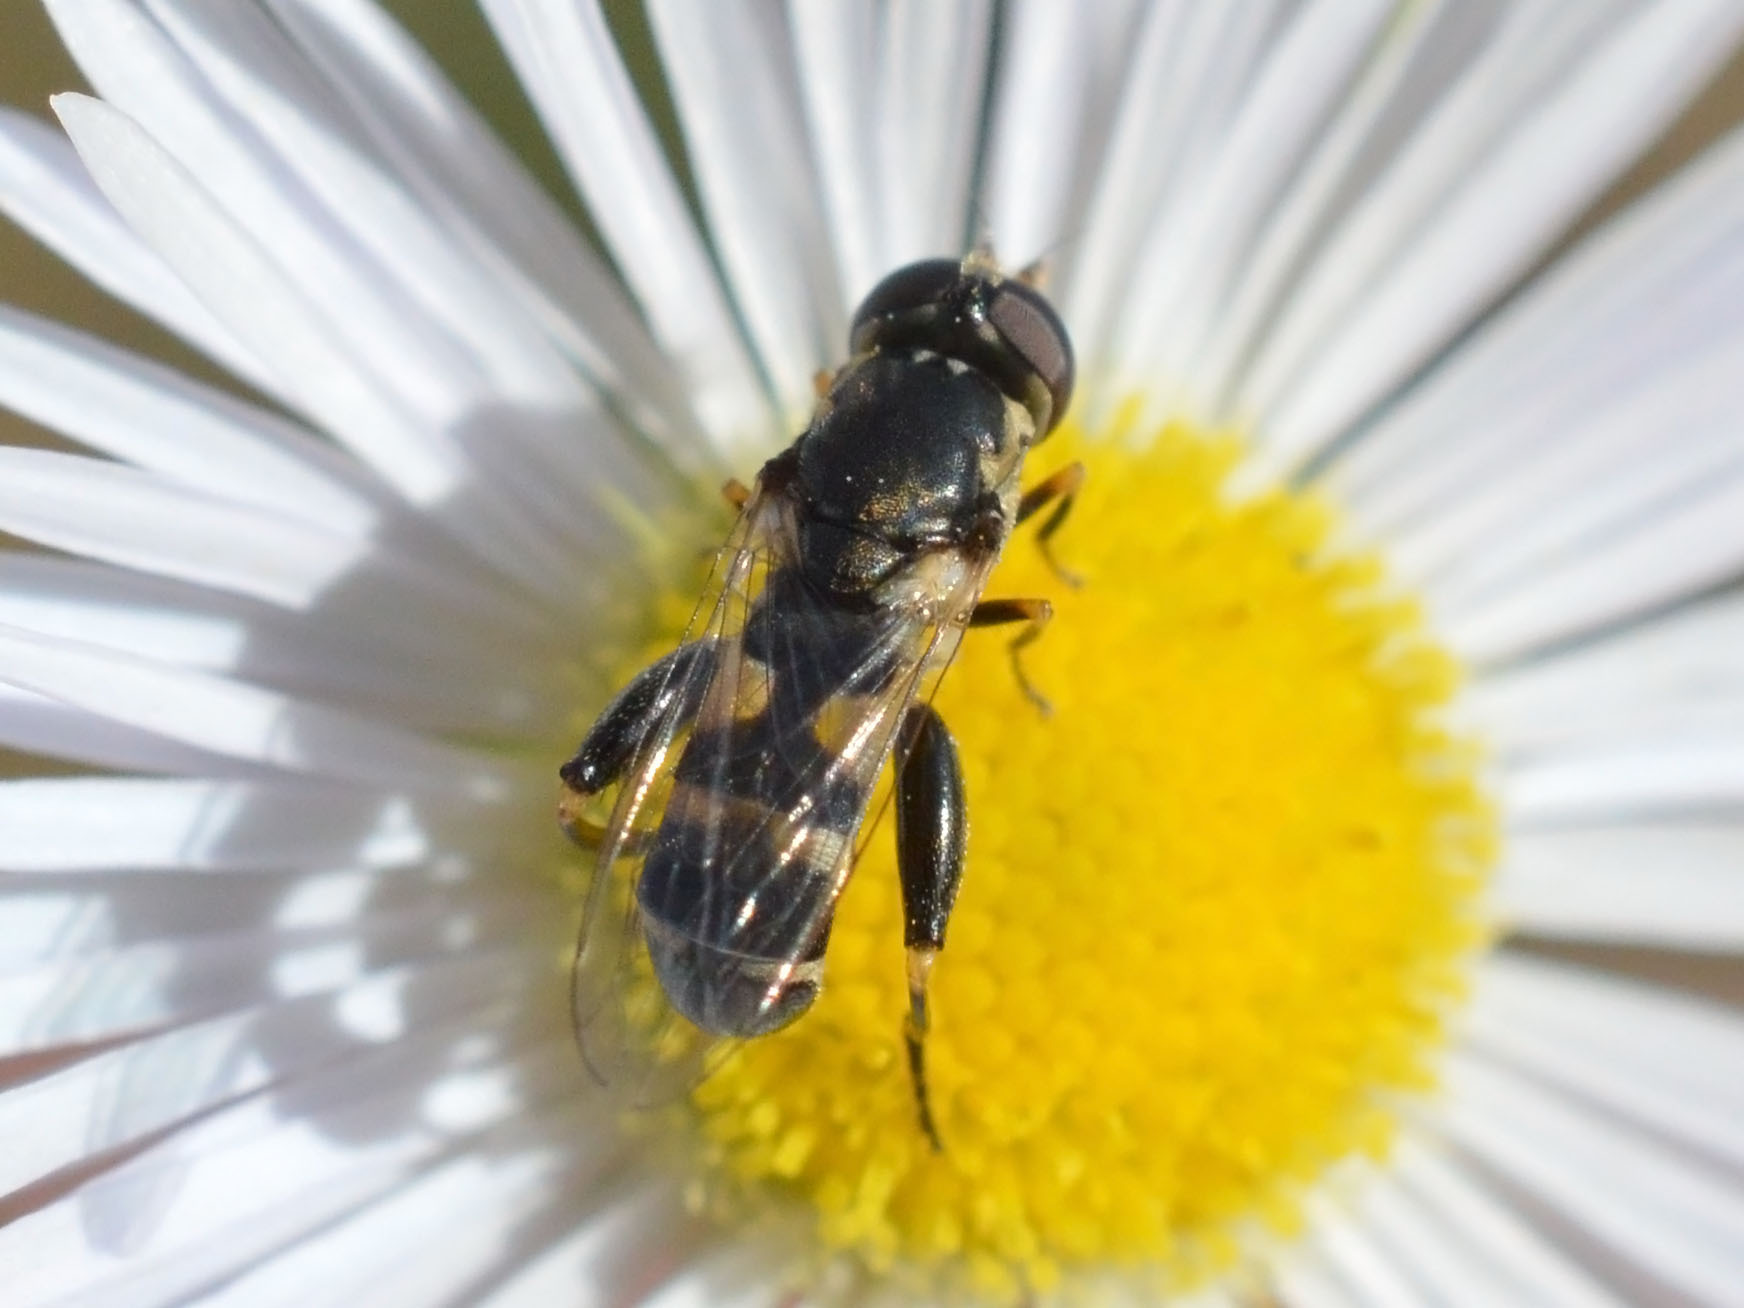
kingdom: Animalia
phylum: Arthropoda
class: Insecta
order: Diptera
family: Syrphidae
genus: Syritta
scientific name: Syritta pipiens
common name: Hover fly
